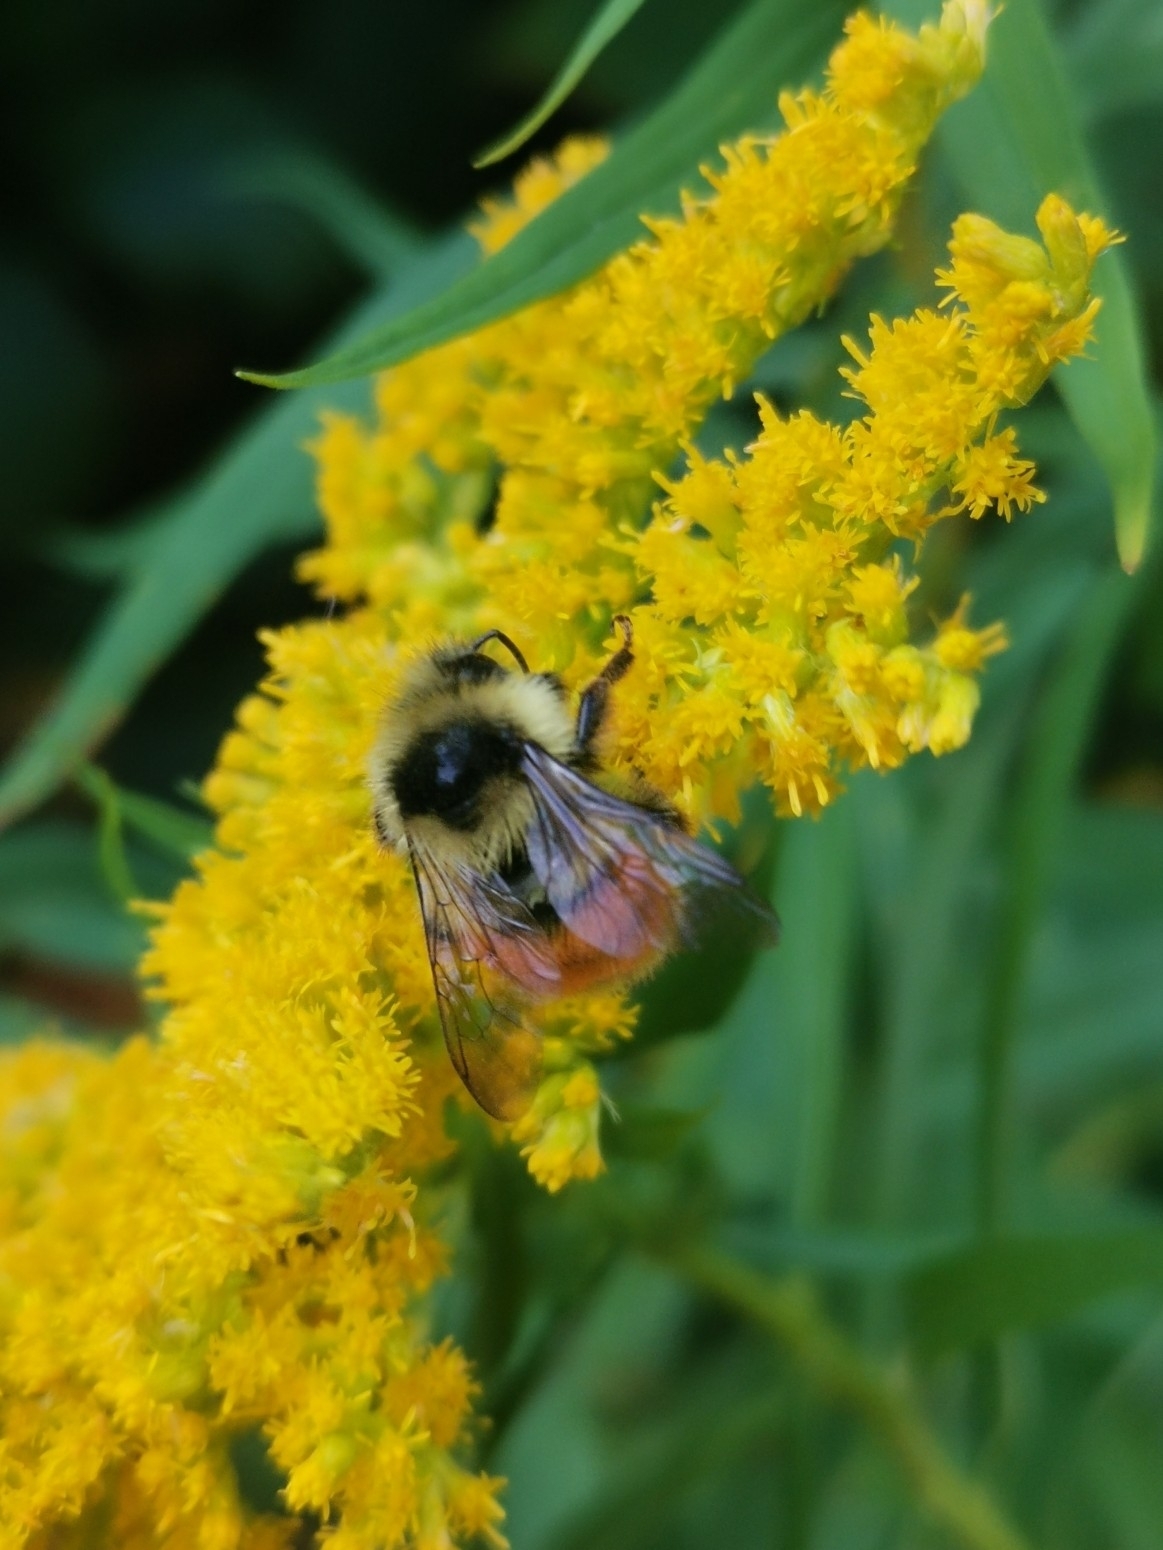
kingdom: Animalia
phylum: Arthropoda
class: Insecta
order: Hymenoptera
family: Apidae
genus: Bombus
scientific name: Bombus ternarius
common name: Tri-colored bumble bee
